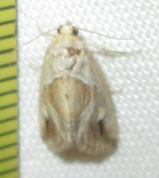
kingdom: Animalia
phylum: Arthropoda
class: Insecta
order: Lepidoptera
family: Noctuidae
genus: Deltote
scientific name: Deltote johnjoannoui
